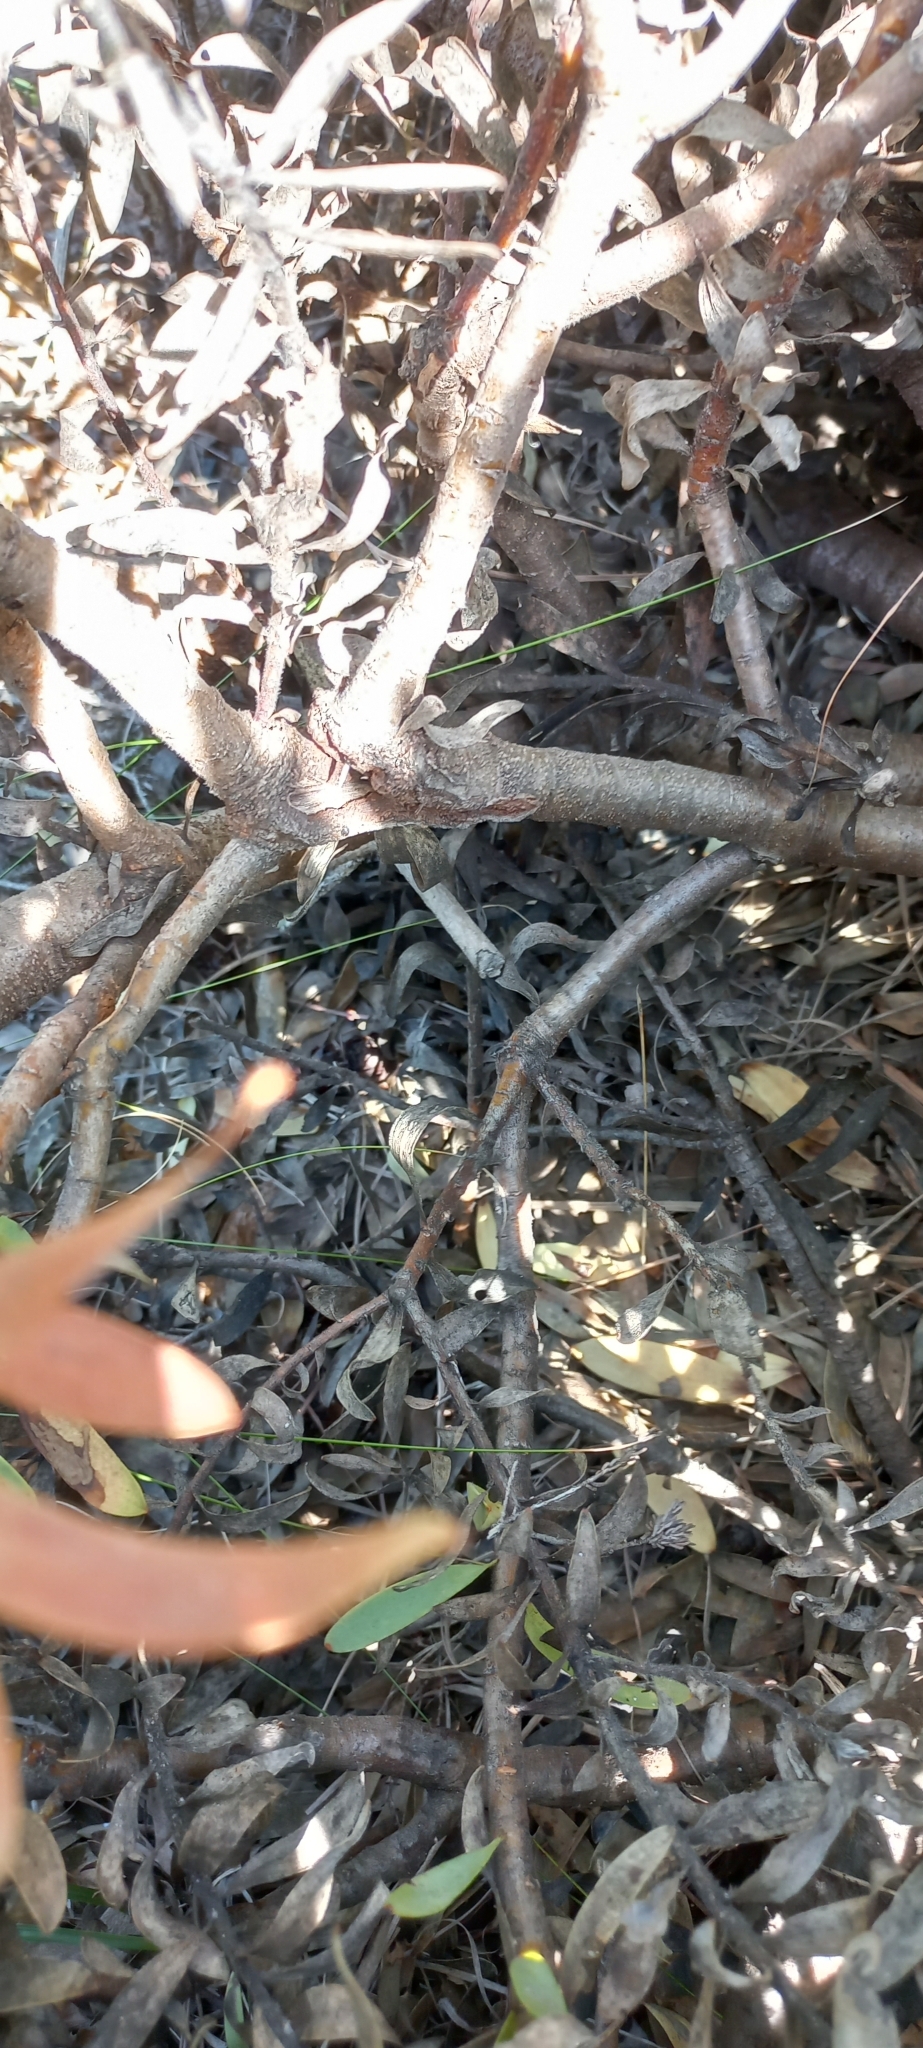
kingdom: Plantae
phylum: Tracheophyta
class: Magnoliopsida
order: Proteales
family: Proteaceae
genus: Leucadendron
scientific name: Leucadendron sessile
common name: Western sunbush
